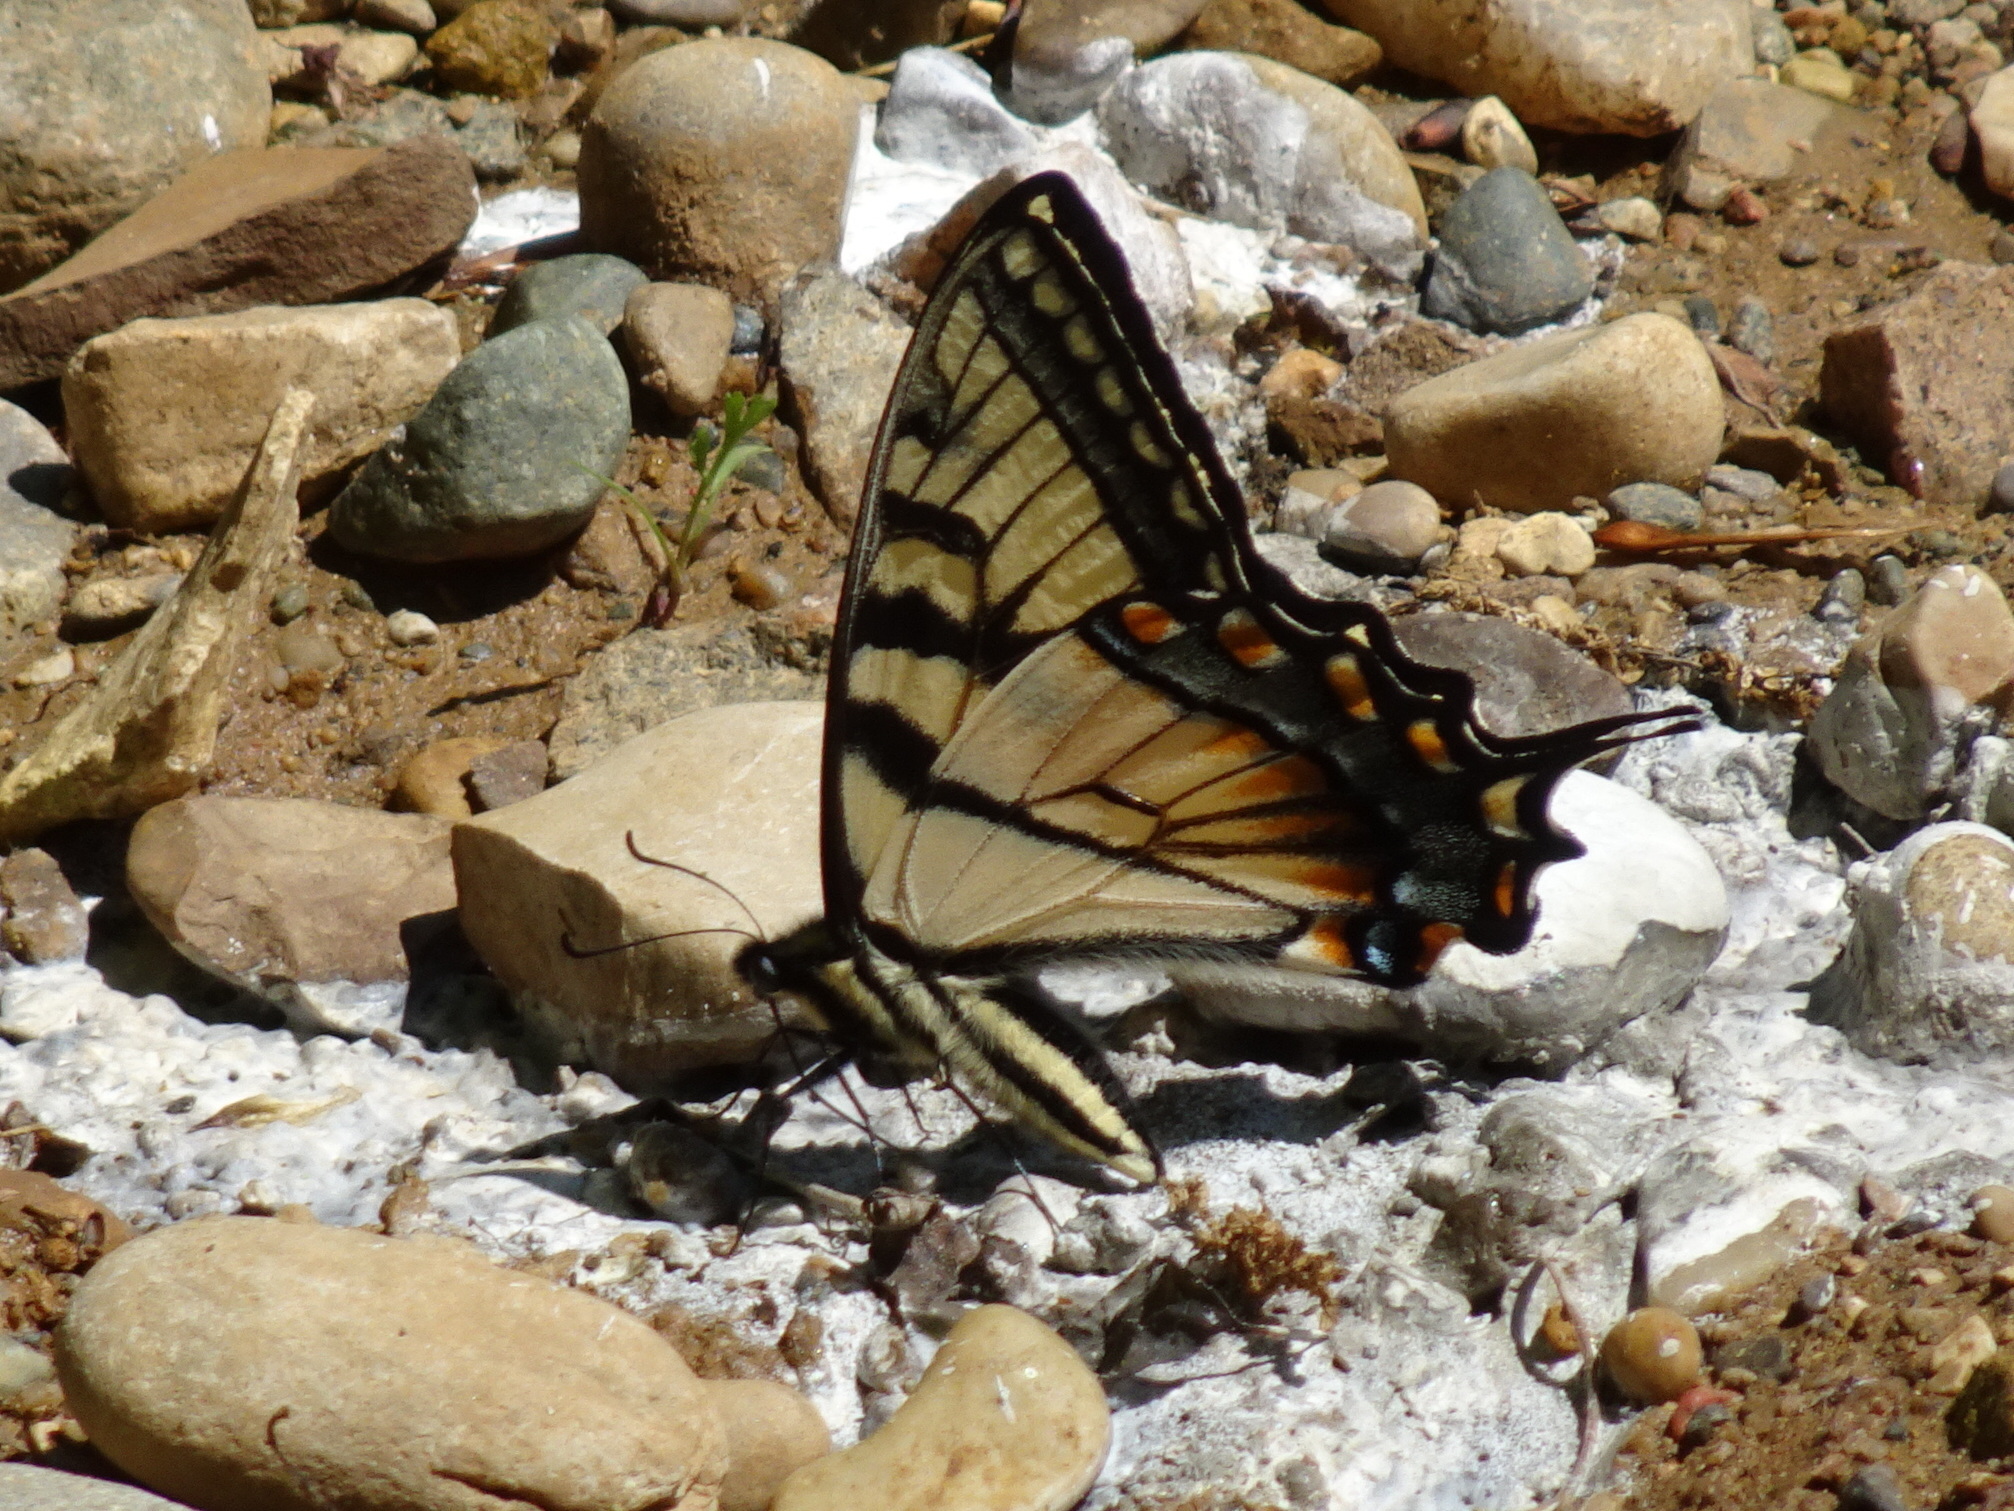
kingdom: Animalia
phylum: Arthropoda
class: Insecta
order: Lepidoptera
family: Papilionidae
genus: Papilio
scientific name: Papilio glaucus
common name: Tiger swallowtail
